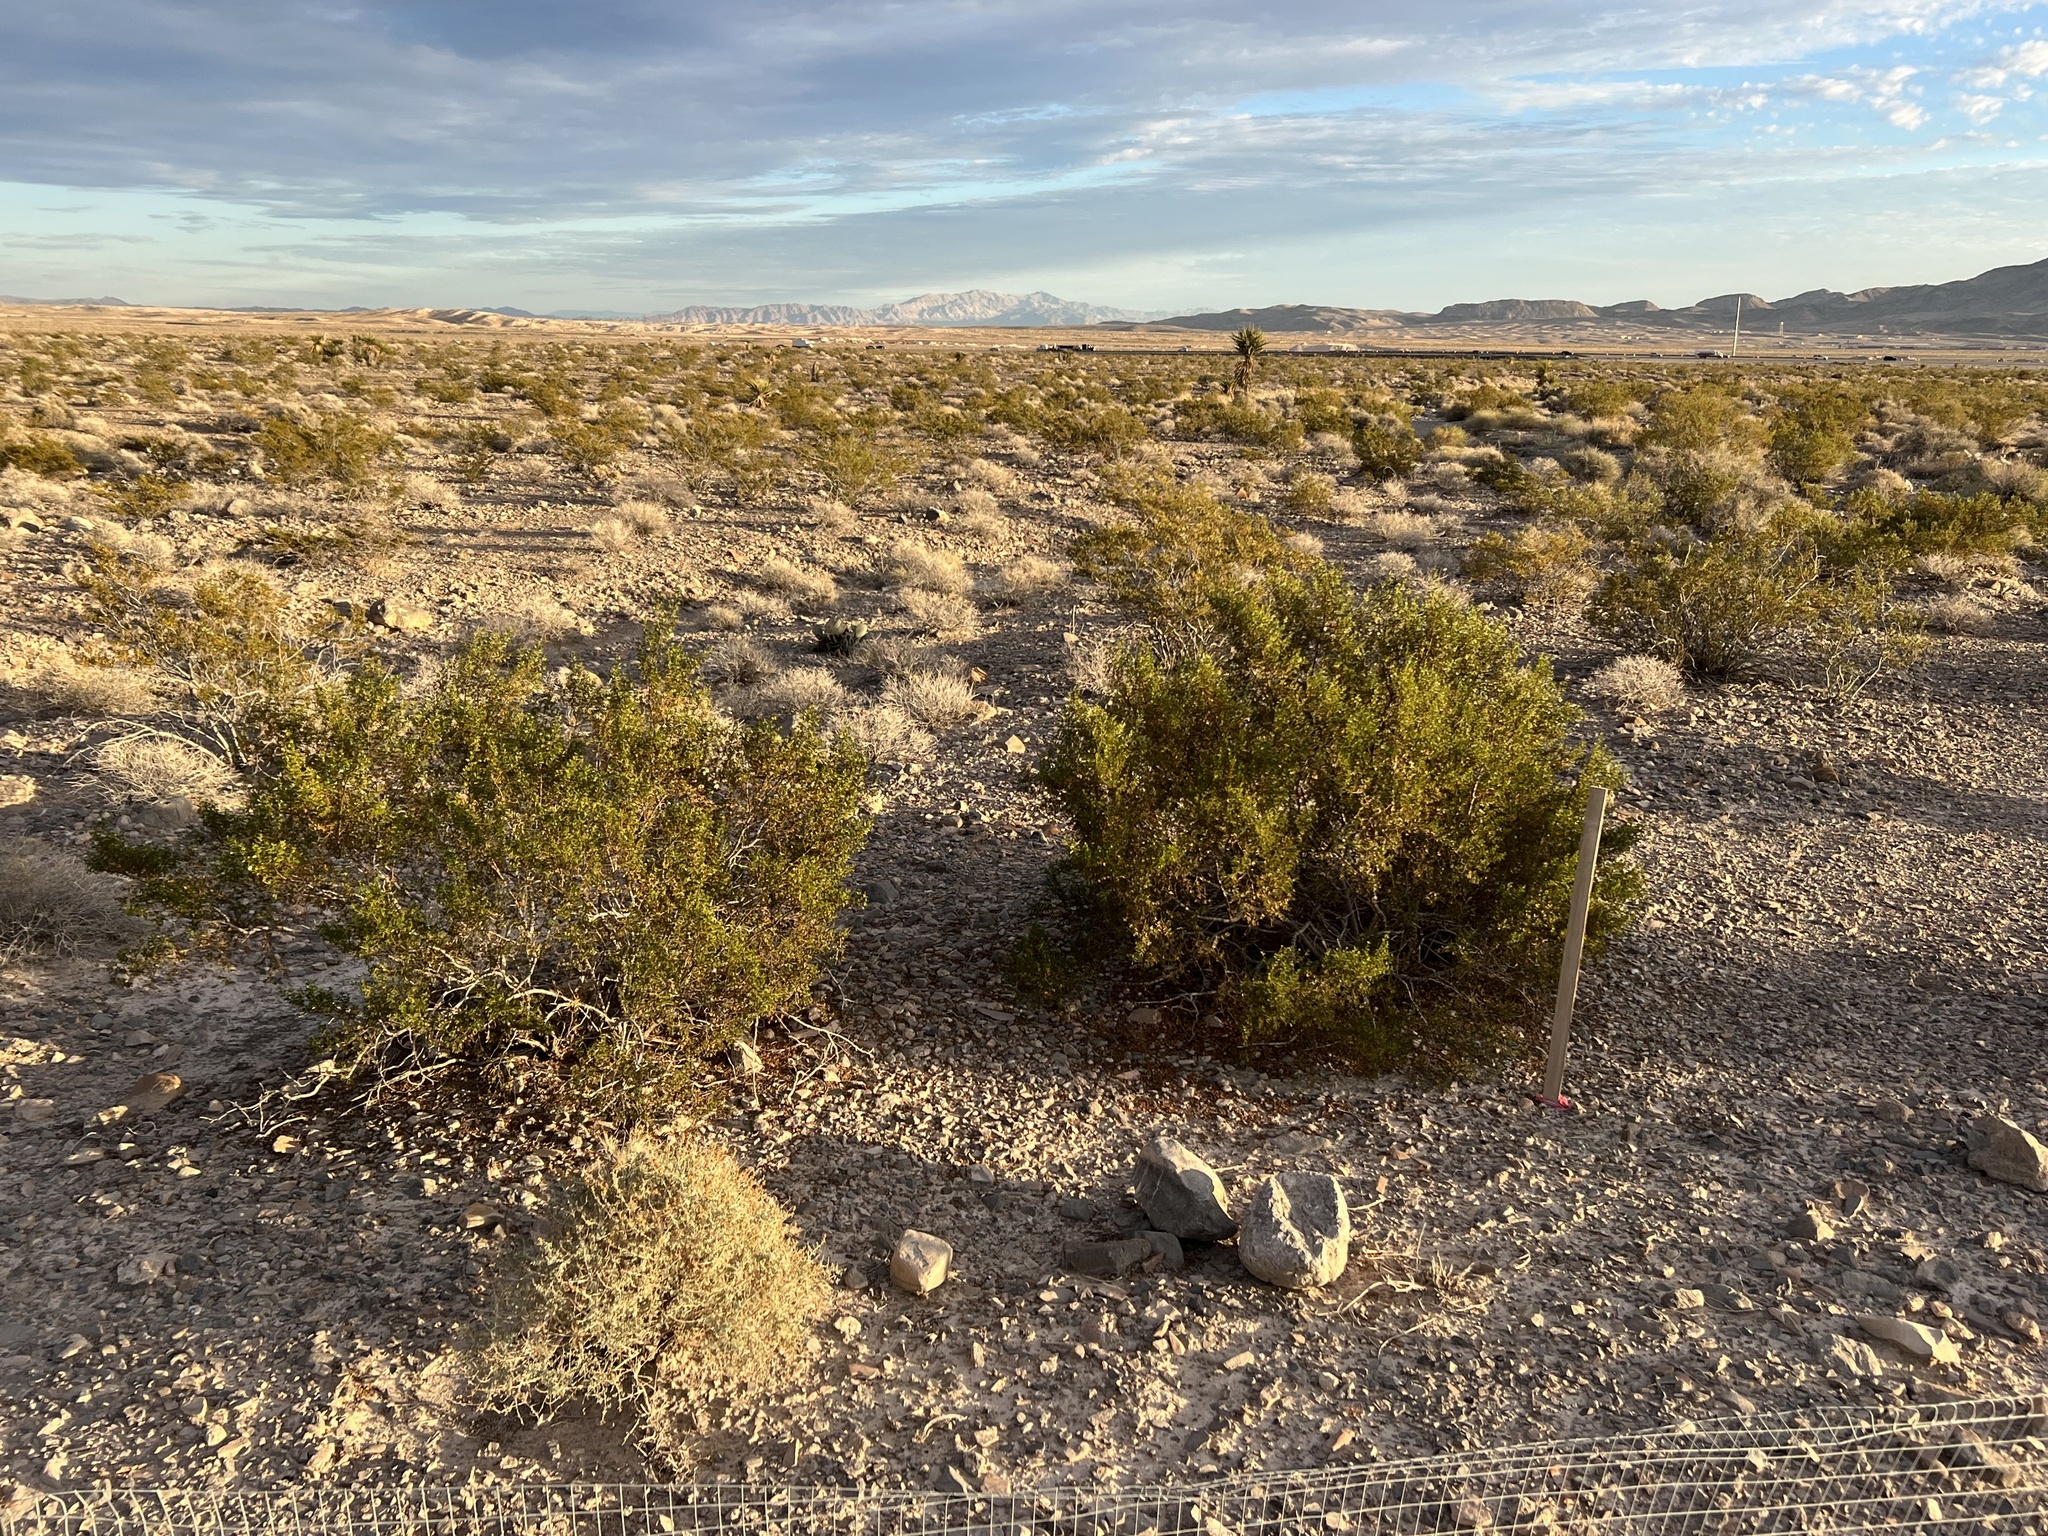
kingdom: Plantae
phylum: Tracheophyta
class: Magnoliopsida
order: Zygophyllales
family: Zygophyllaceae
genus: Larrea
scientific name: Larrea tridentata
